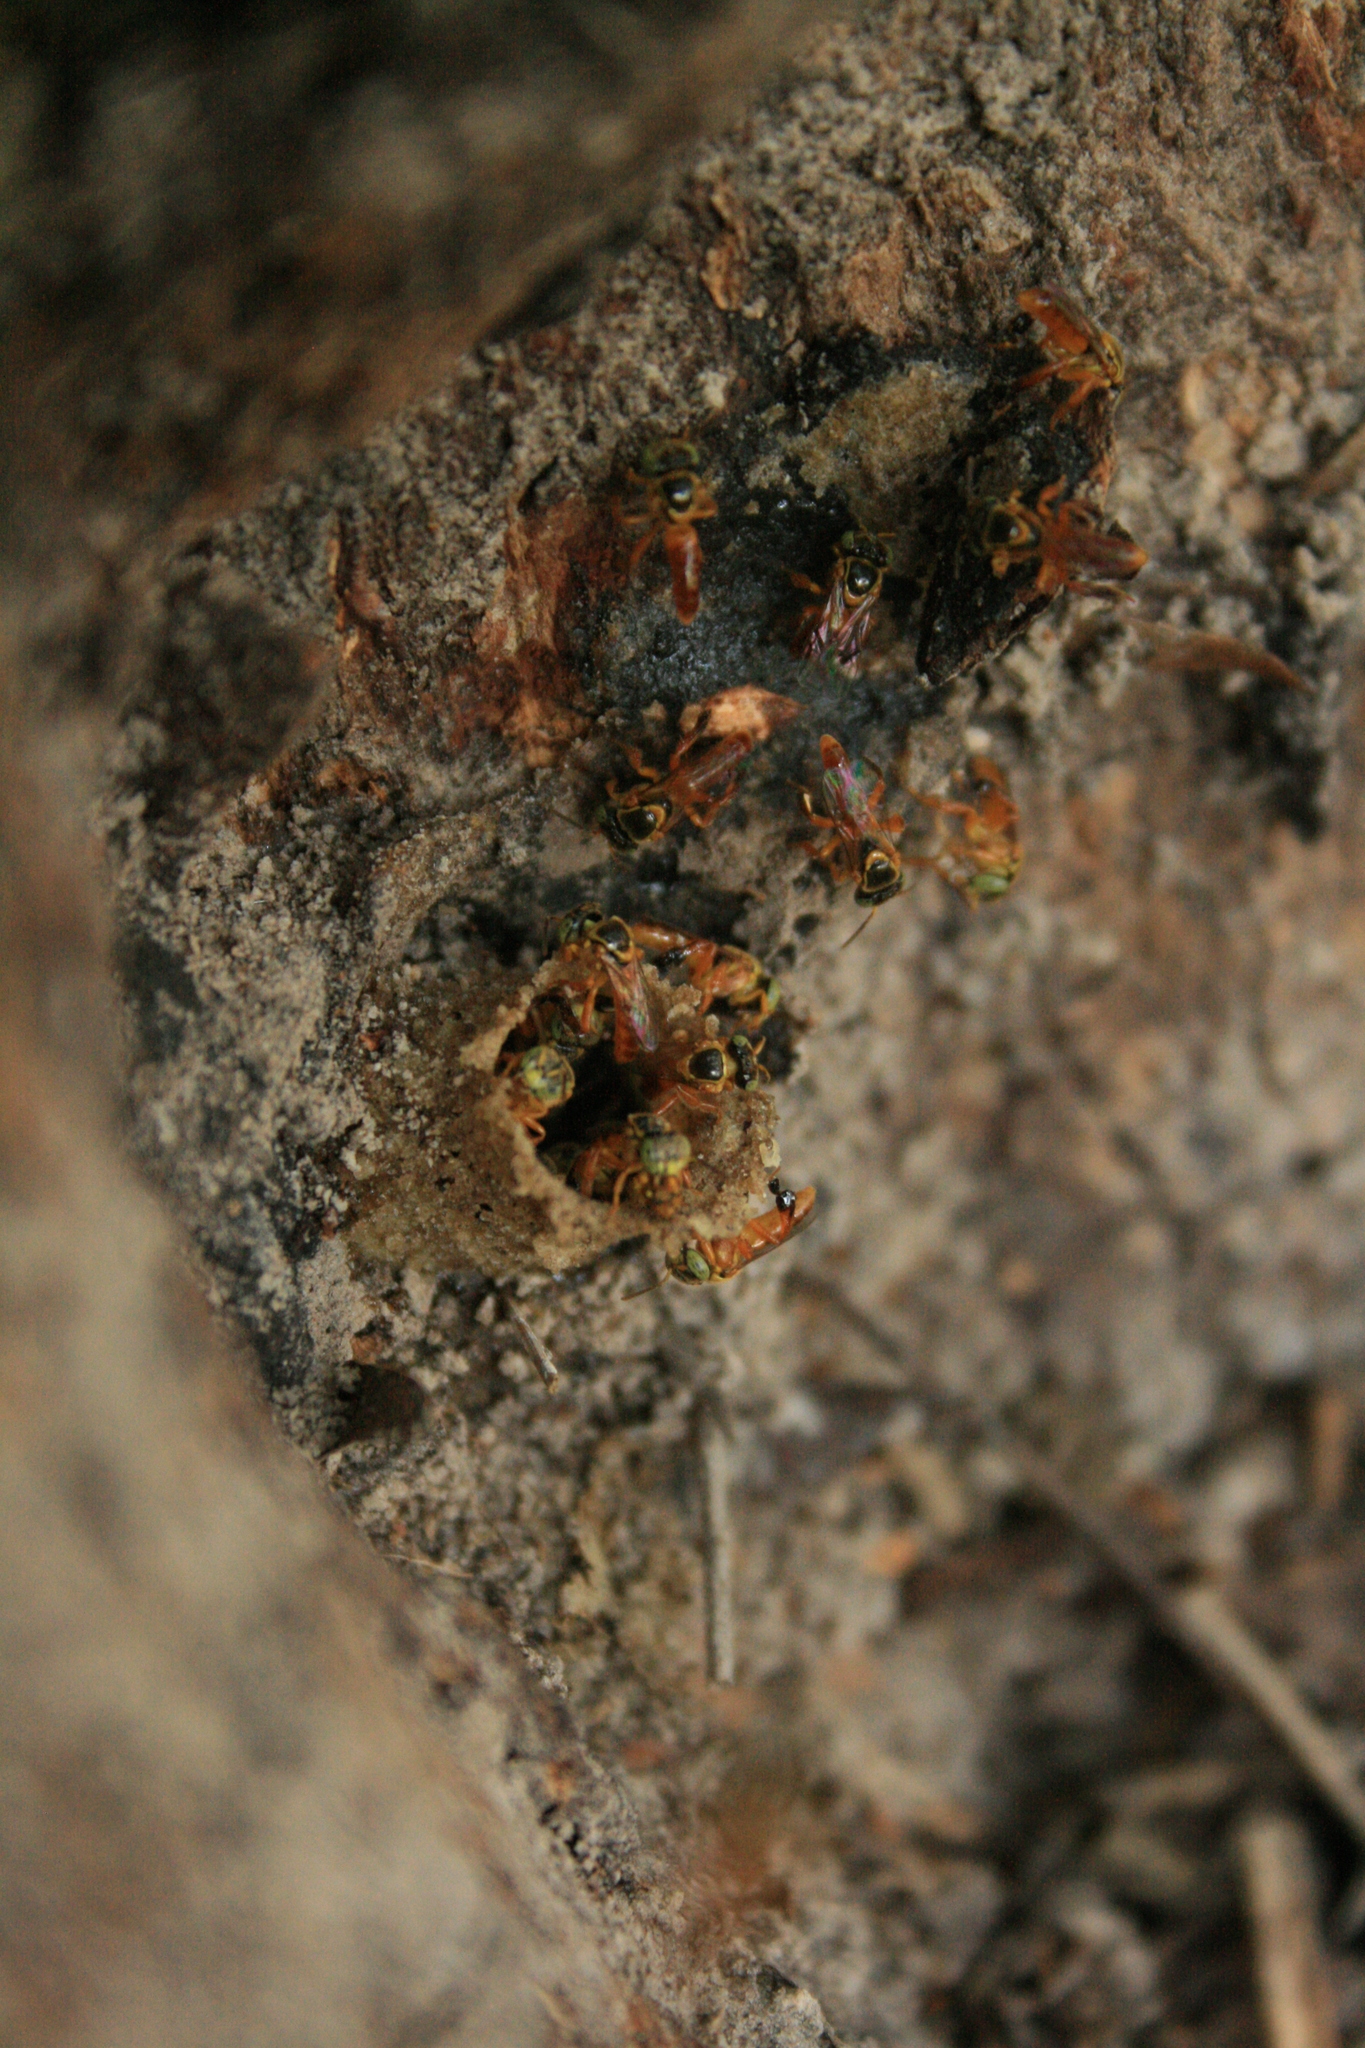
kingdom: Animalia
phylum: Arthropoda
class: Insecta
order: Hymenoptera
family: Apidae
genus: Tetragonisca
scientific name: Tetragonisca fiebrigi
